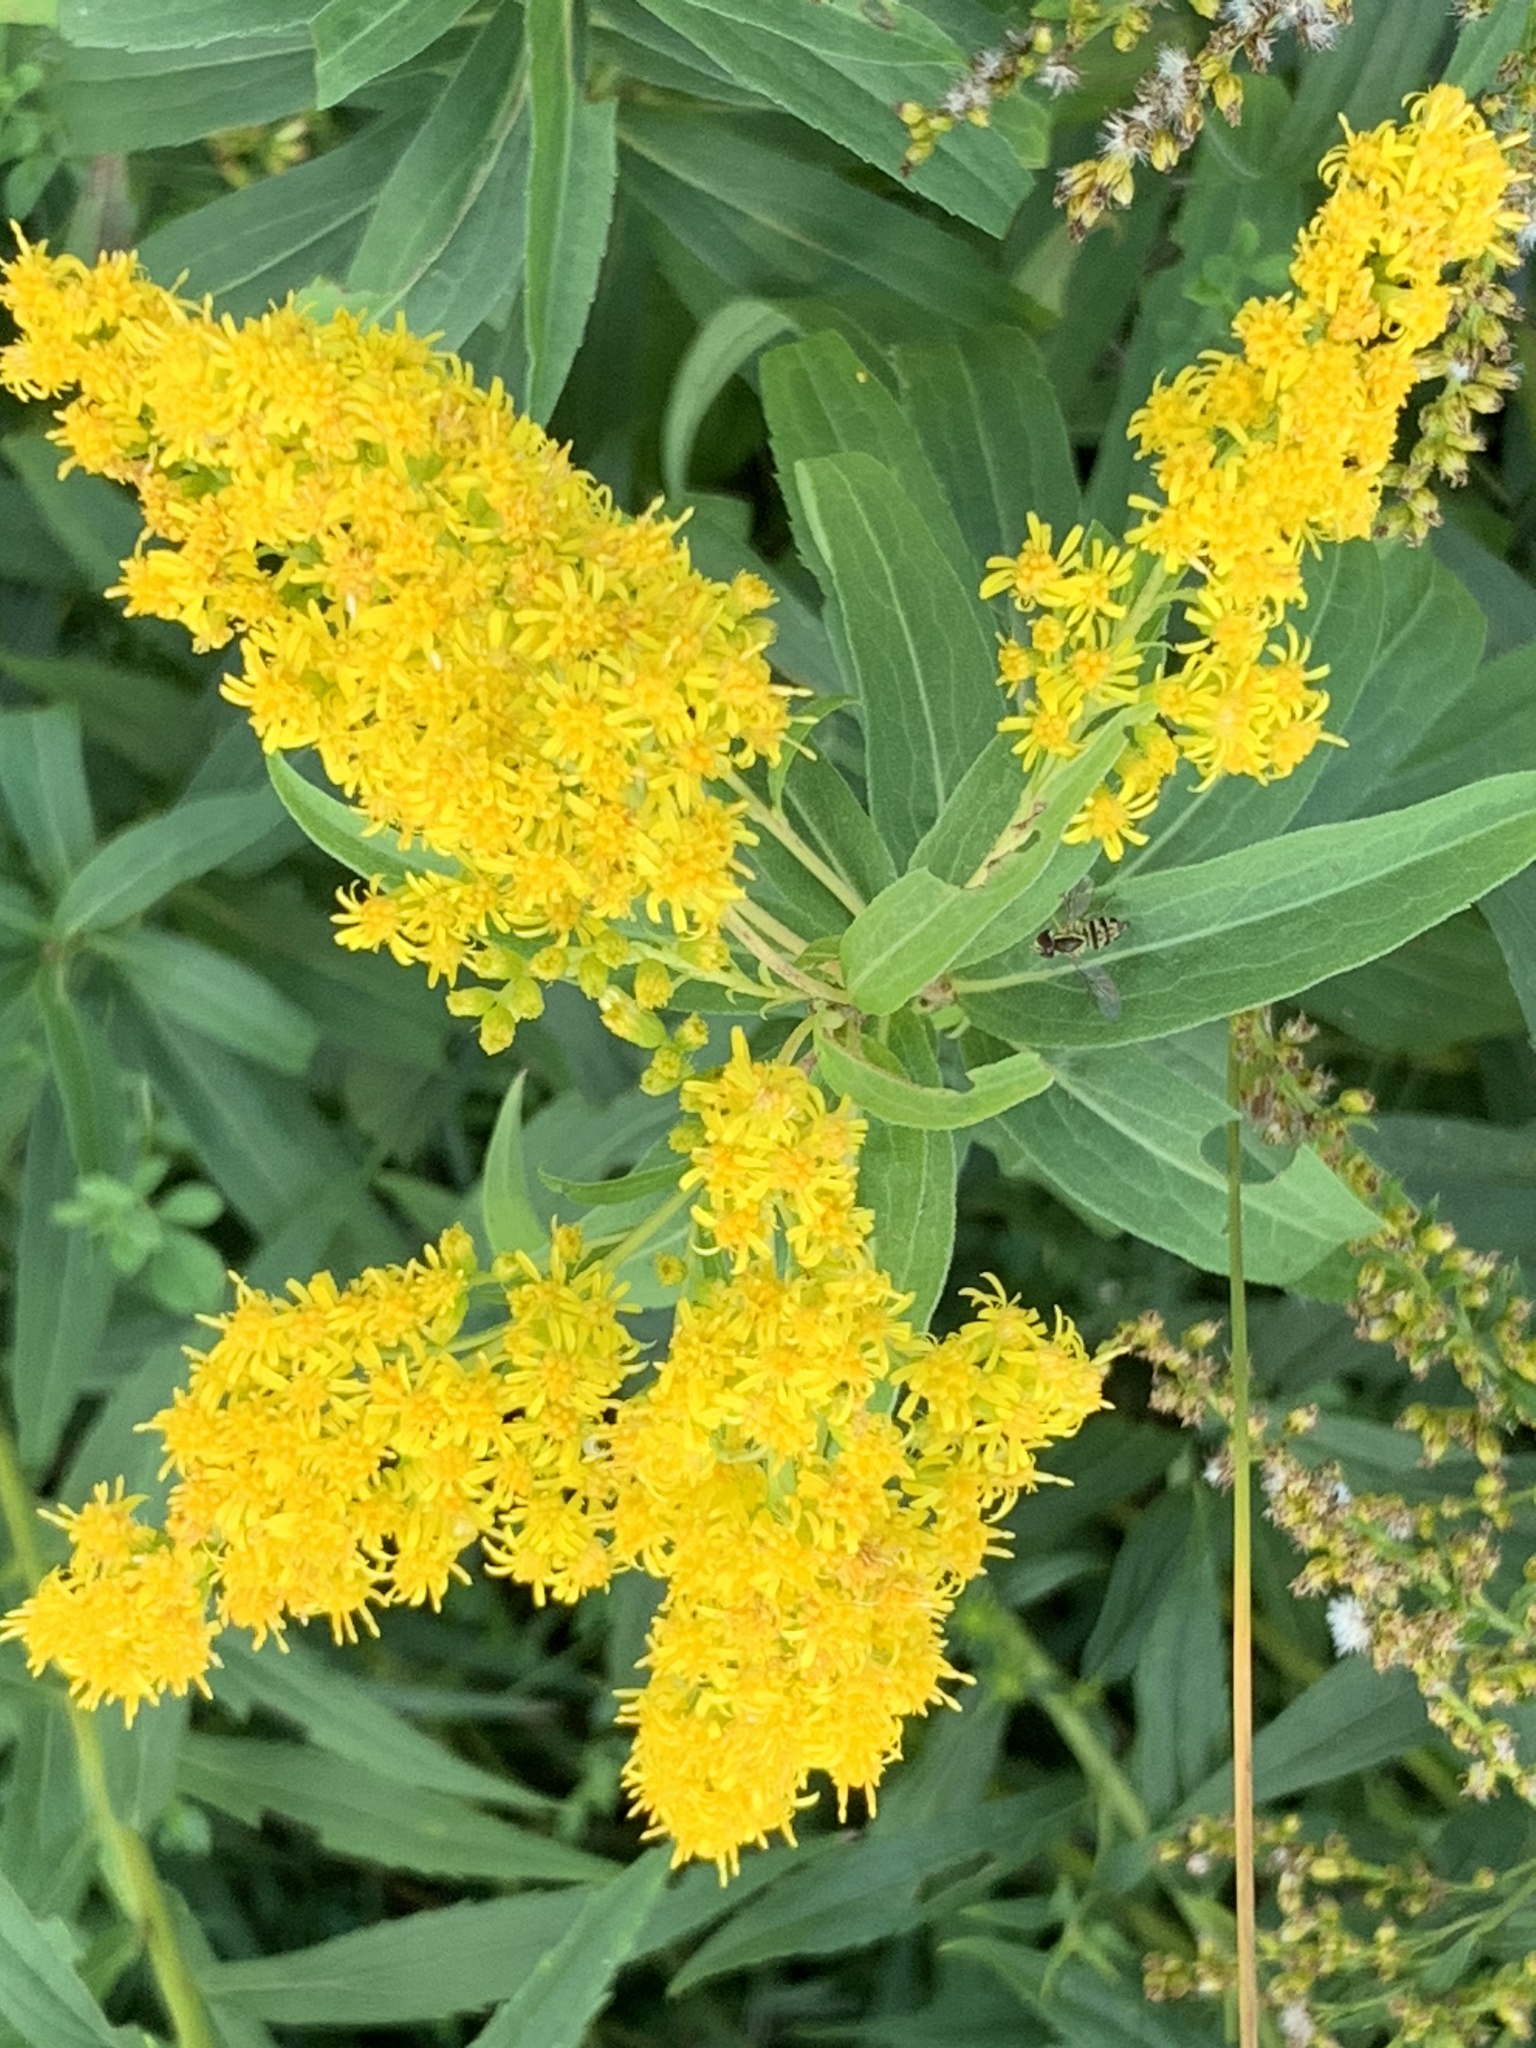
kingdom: Plantae
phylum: Tracheophyta
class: Magnoliopsida
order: Asterales
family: Asteraceae
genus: Solidago
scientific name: Solidago gigantea
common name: Giant goldenrod
